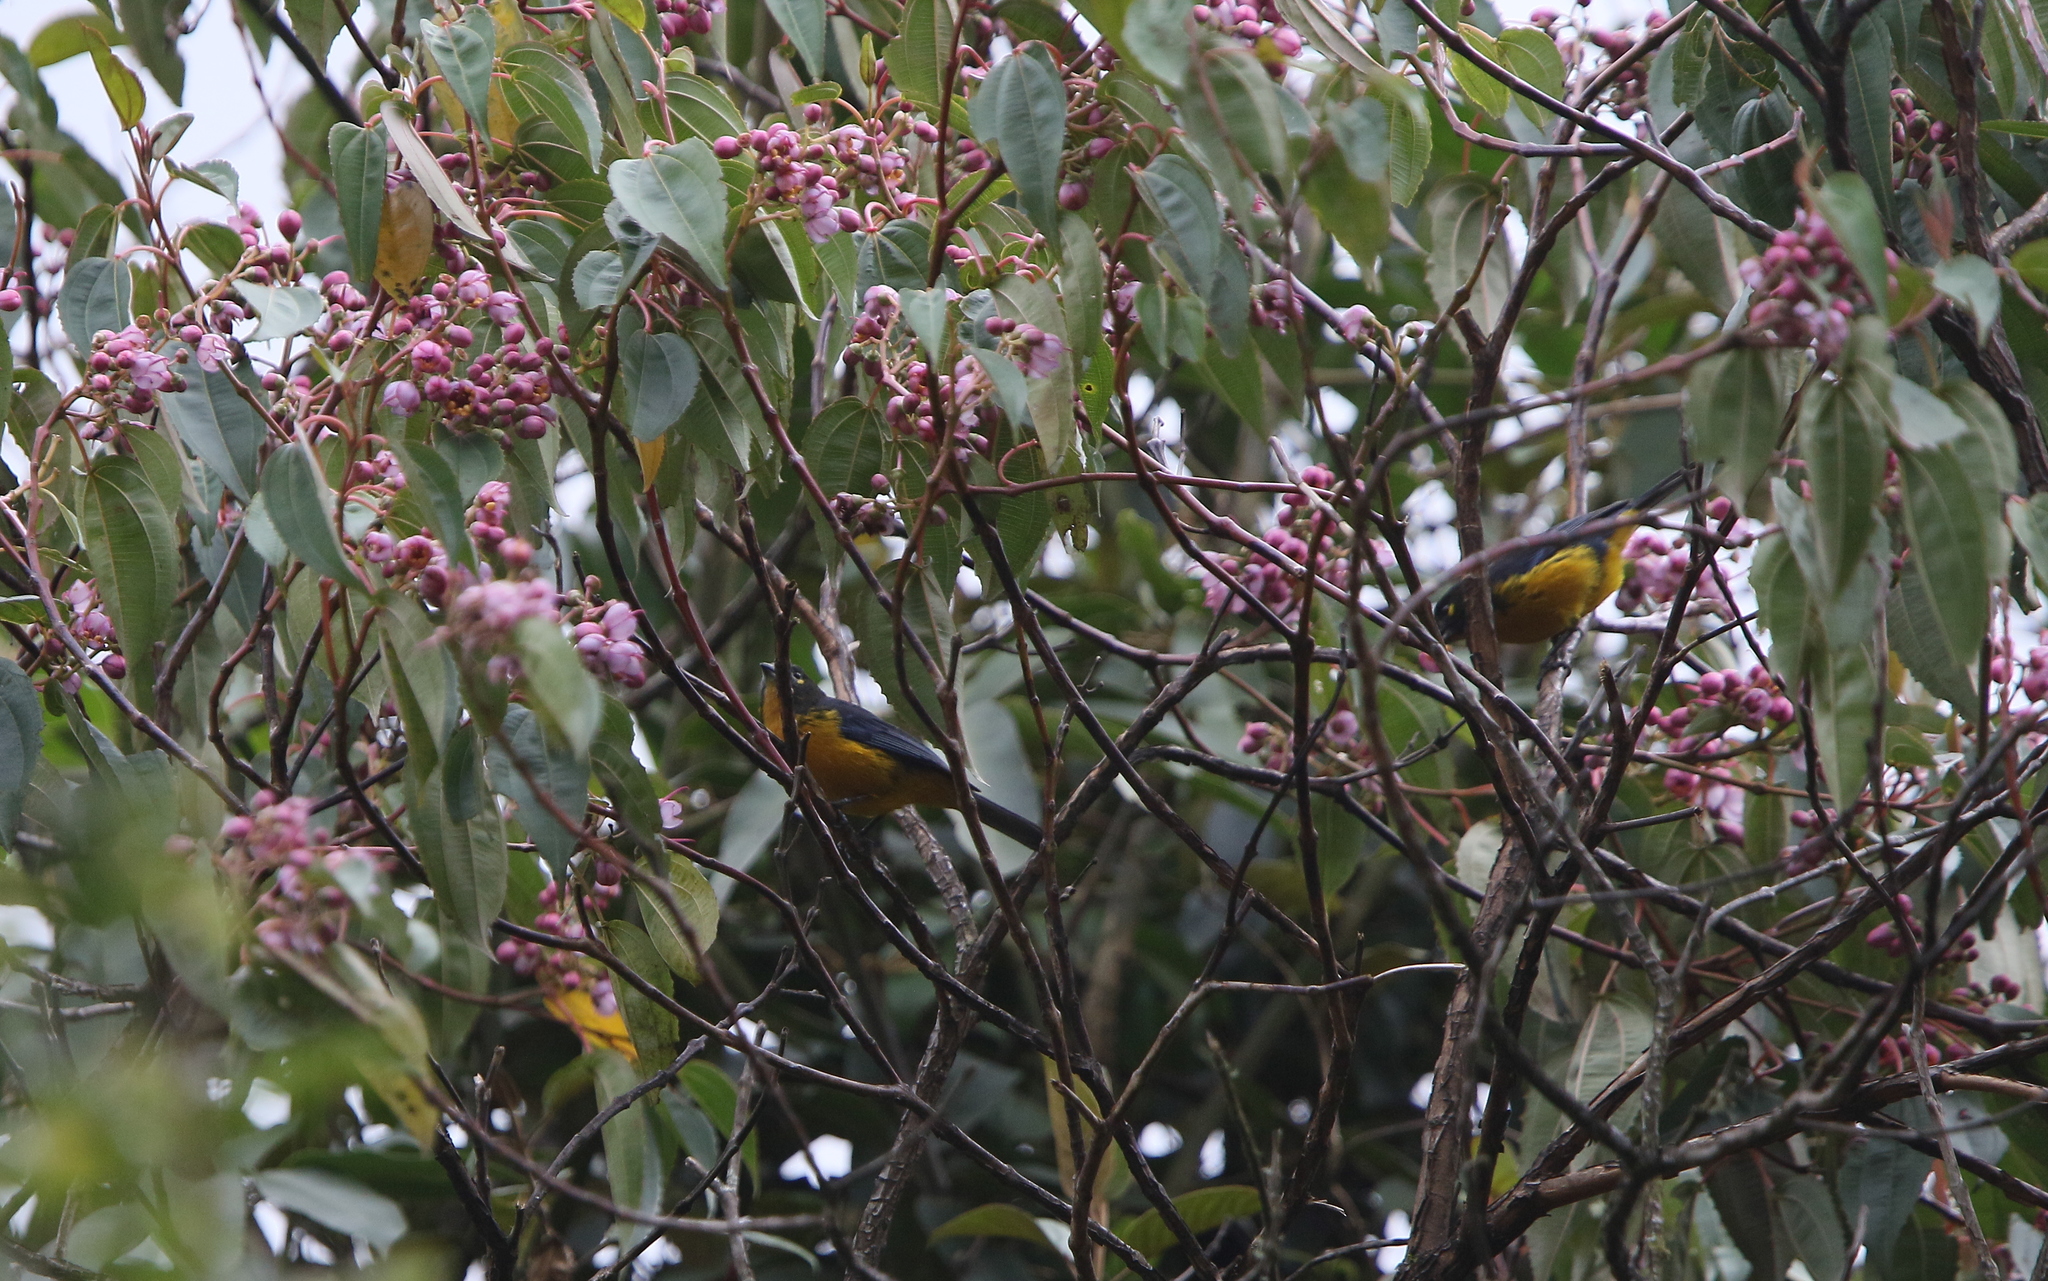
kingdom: Animalia
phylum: Chordata
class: Aves
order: Passeriformes
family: Thraupidae
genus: Anisognathus
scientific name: Anisognathus lacrymosus
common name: Lacrimose mountain-tanager
